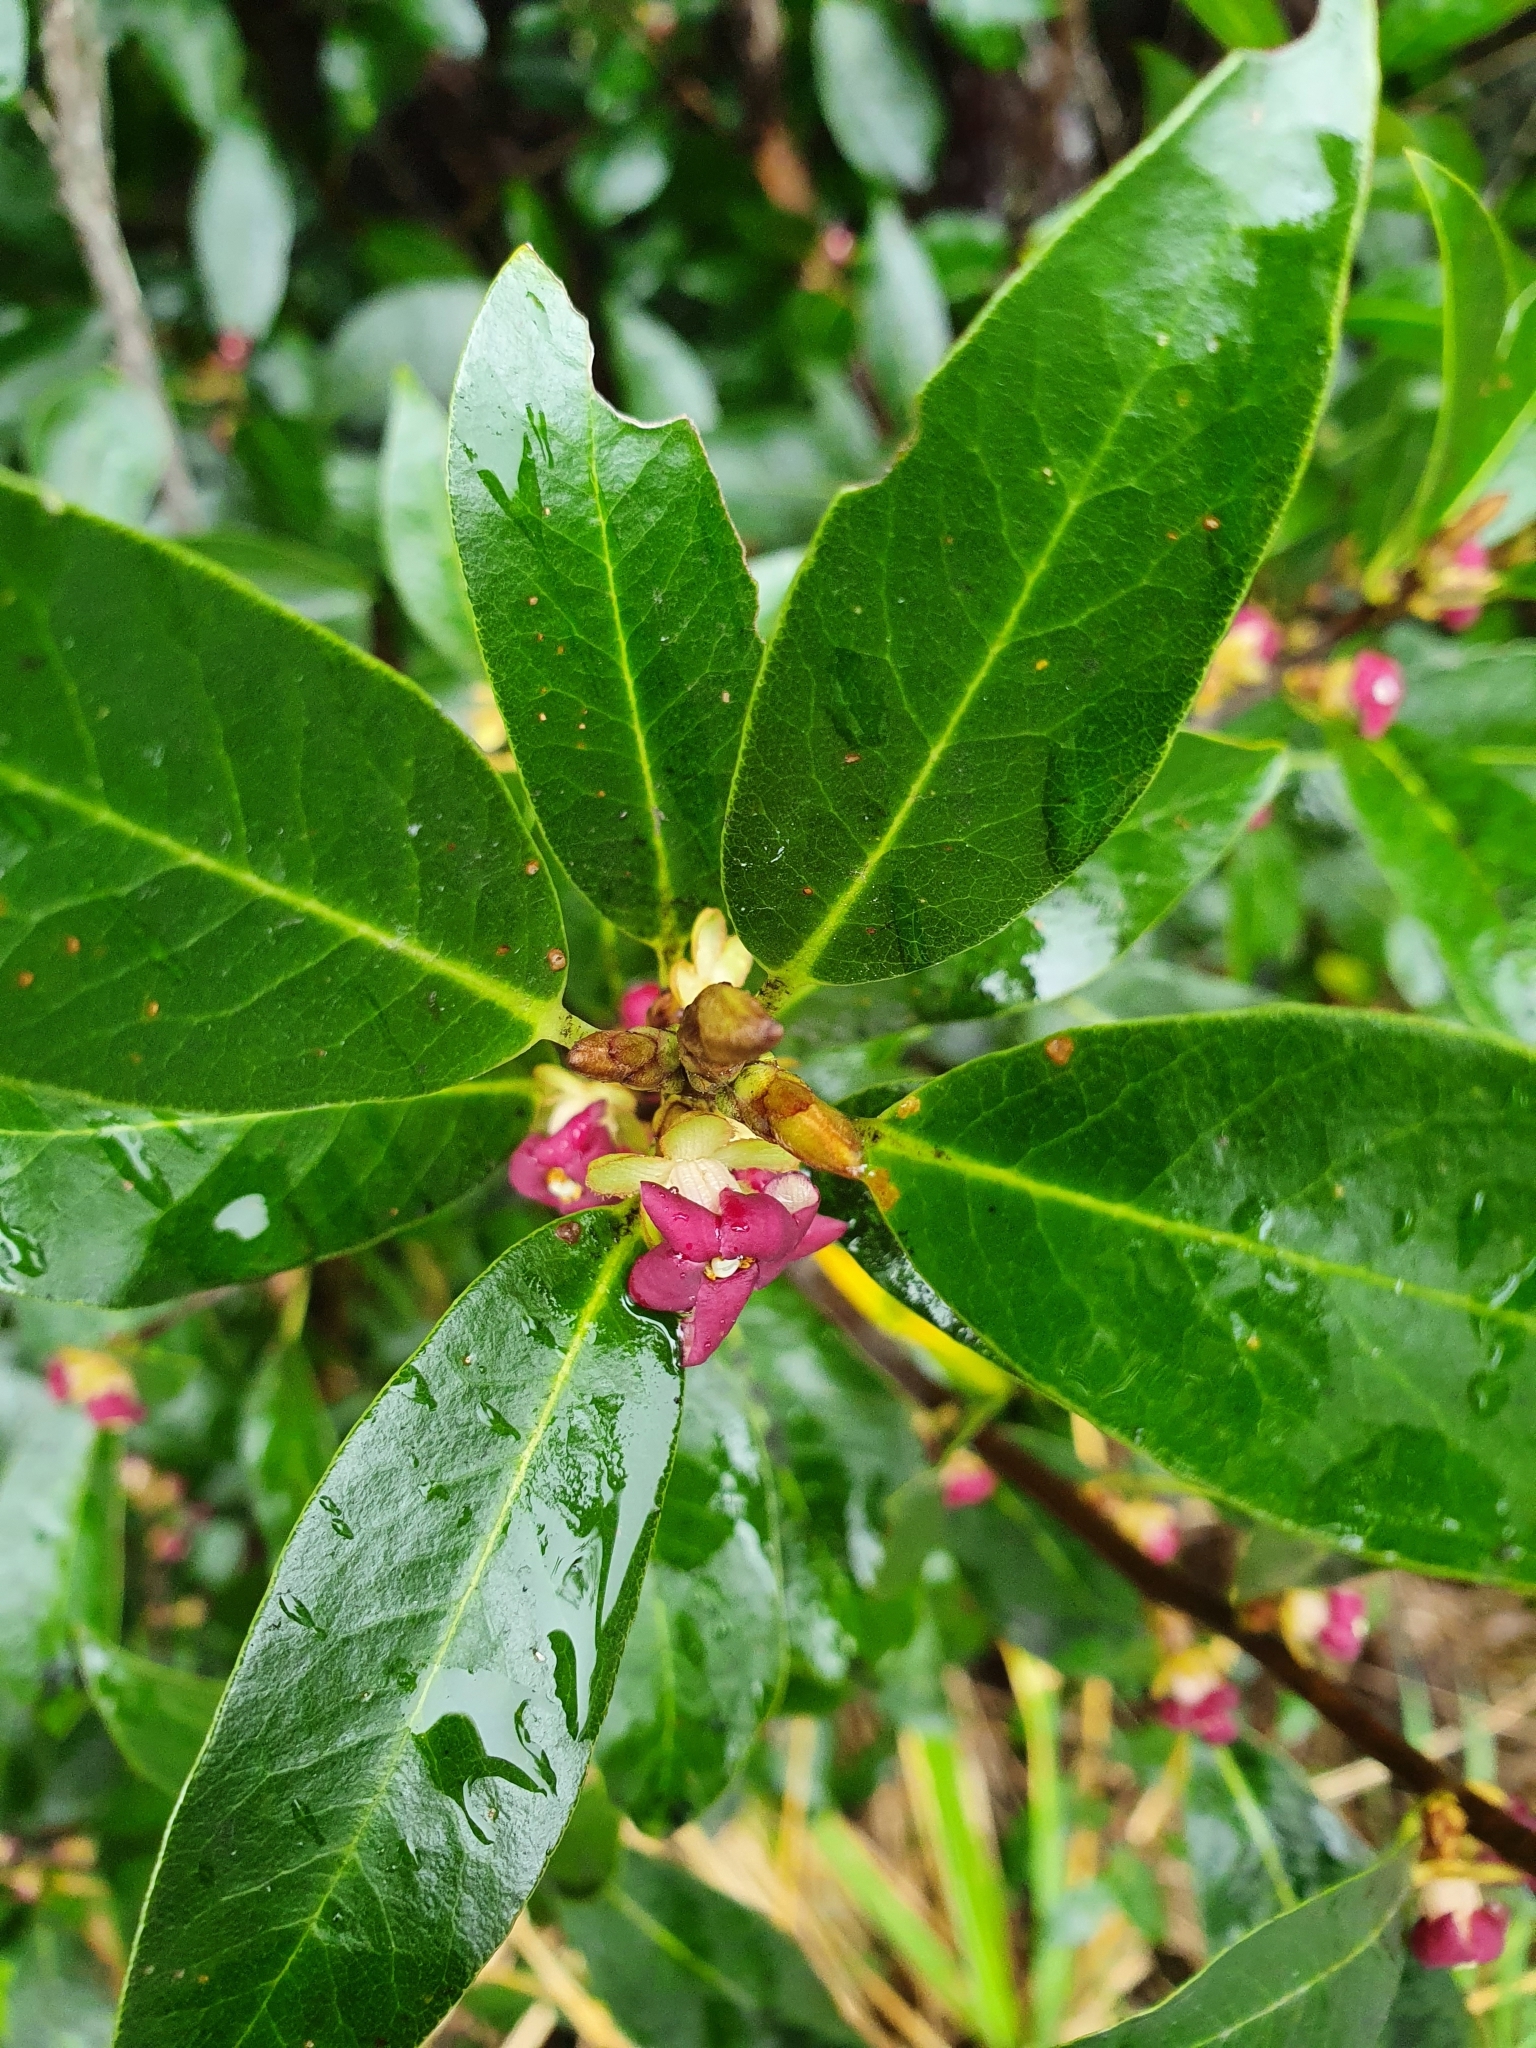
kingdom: Plantae
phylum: Tracheophyta
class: Magnoliopsida
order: Apiales
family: Pittosporaceae
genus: Pittosporum
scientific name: Pittosporum colensoi
